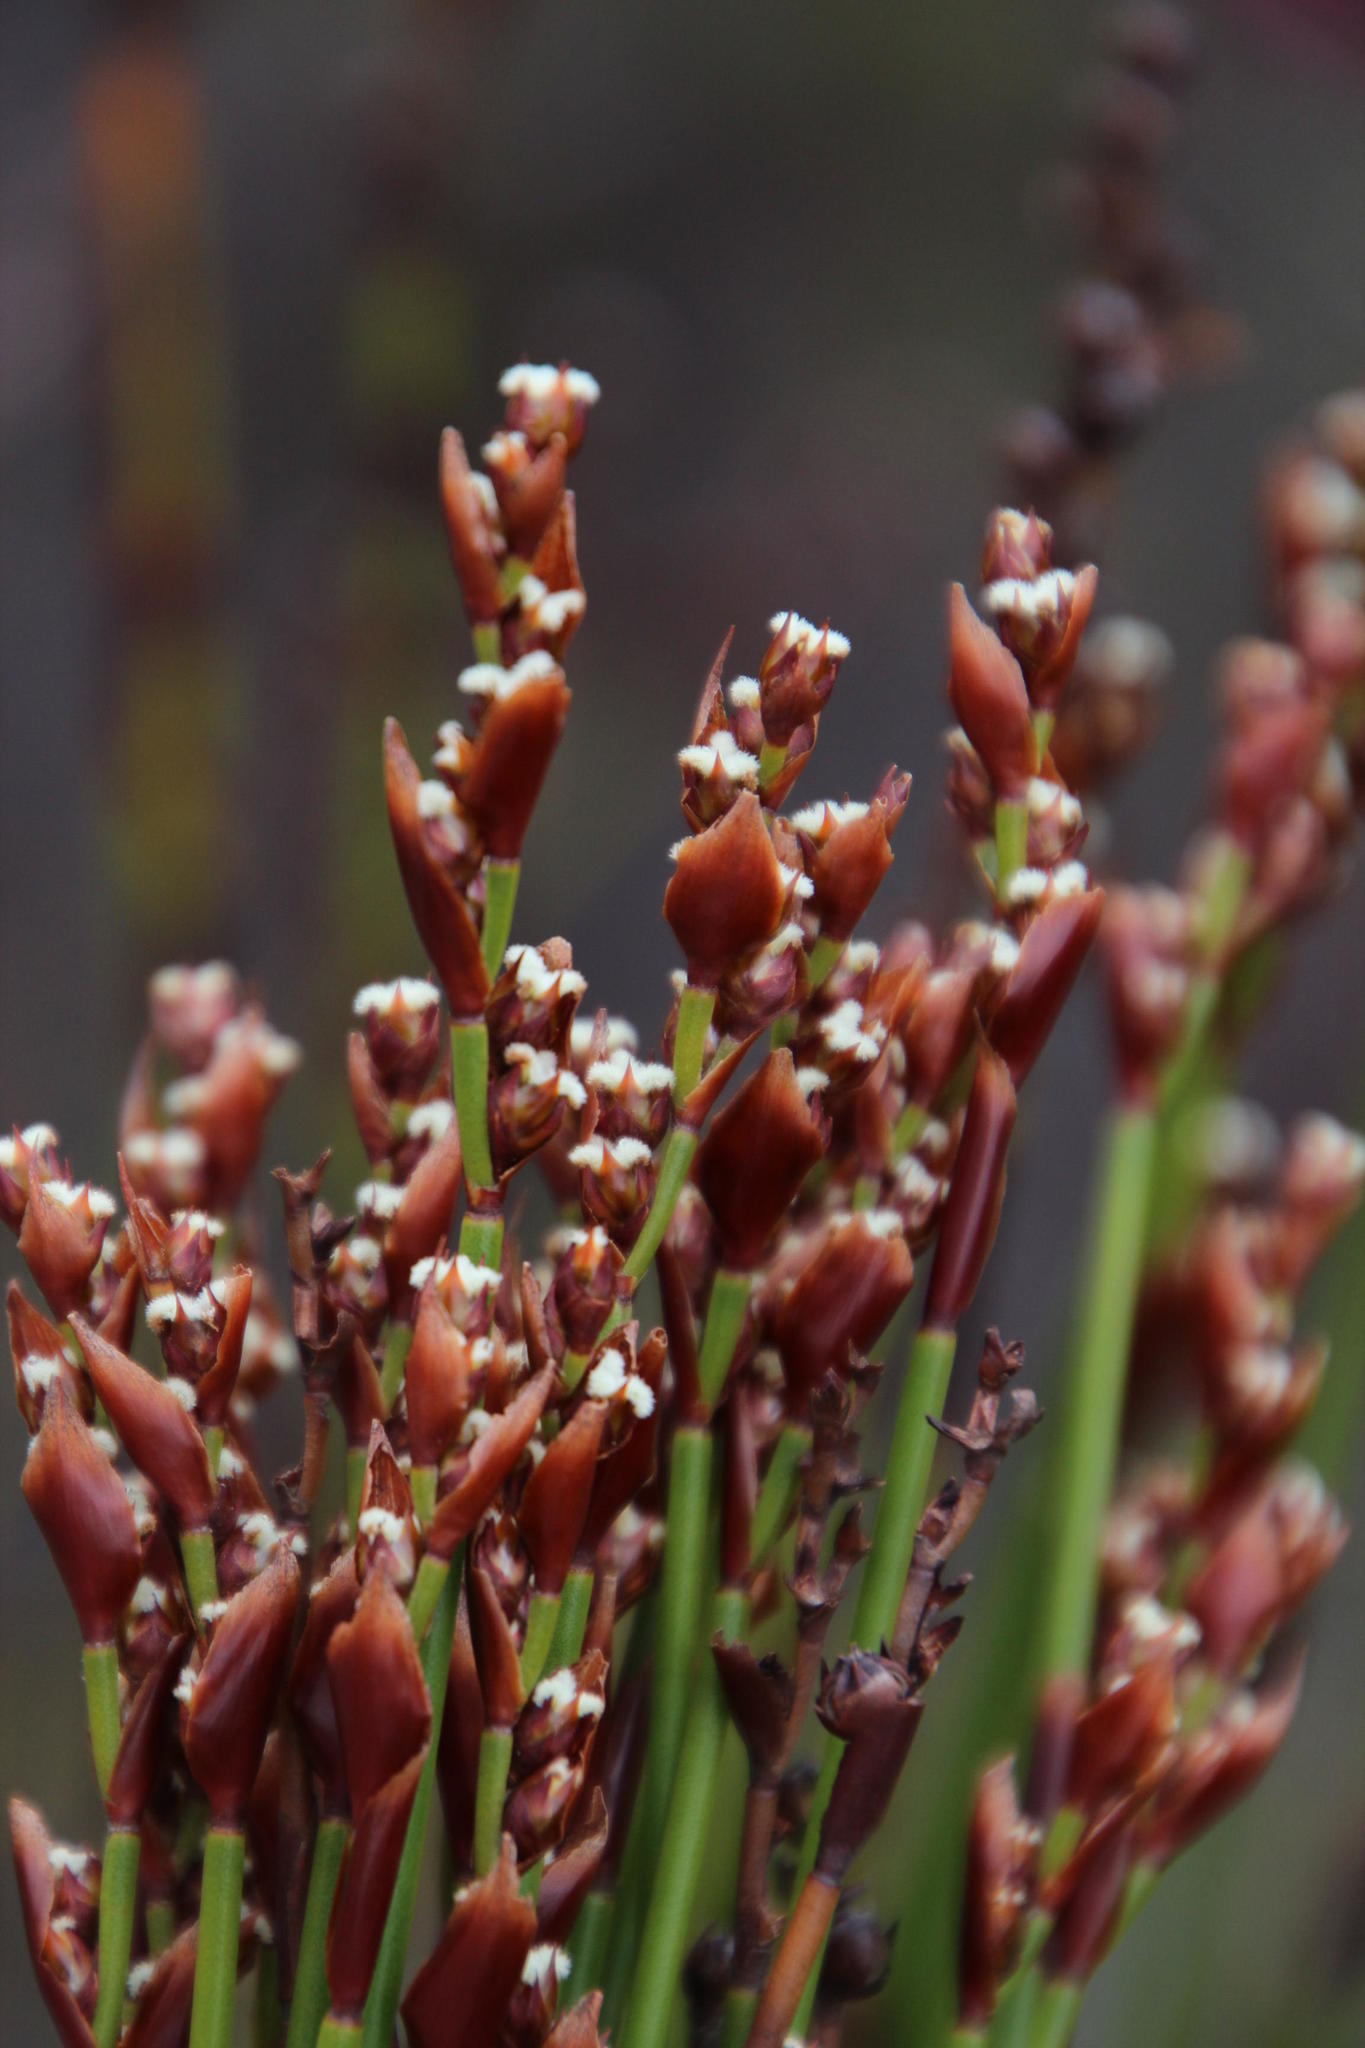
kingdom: Plantae
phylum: Tracheophyta
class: Liliopsida
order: Poales
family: Restionaceae
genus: Elegia
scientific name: Elegia ebracteata
